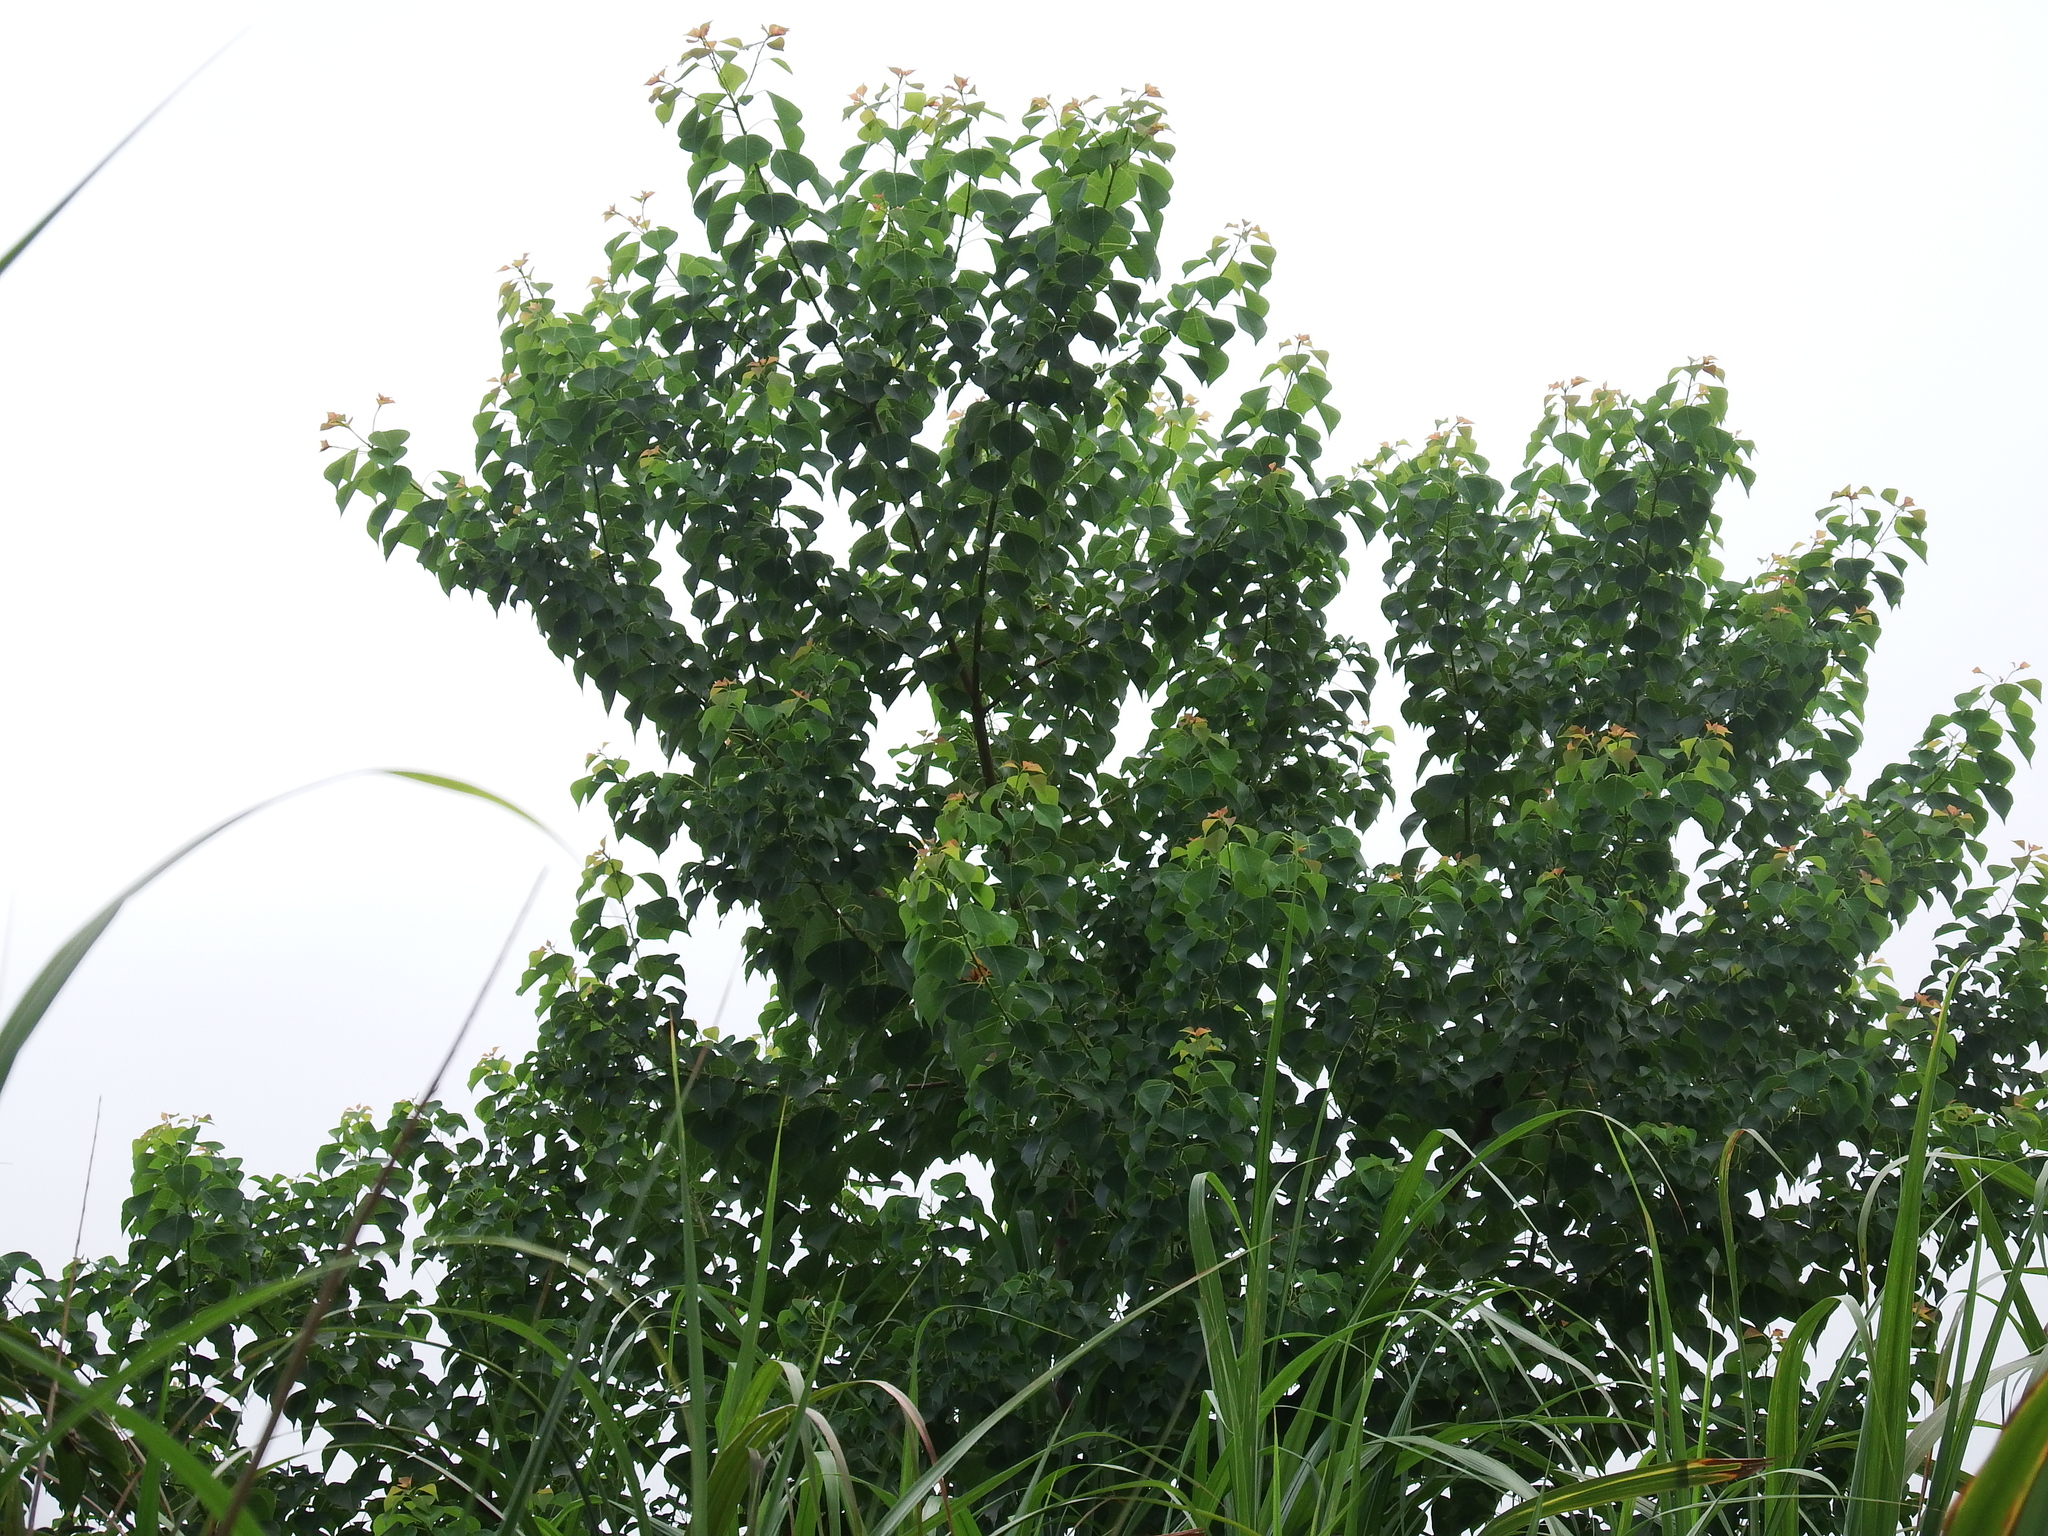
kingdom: Plantae
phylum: Tracheophyta
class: Magnoliopsida
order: Malpighiales
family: Euphorbiaceae
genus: Triadica
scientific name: Triadica sebifera
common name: Chinese tallow
